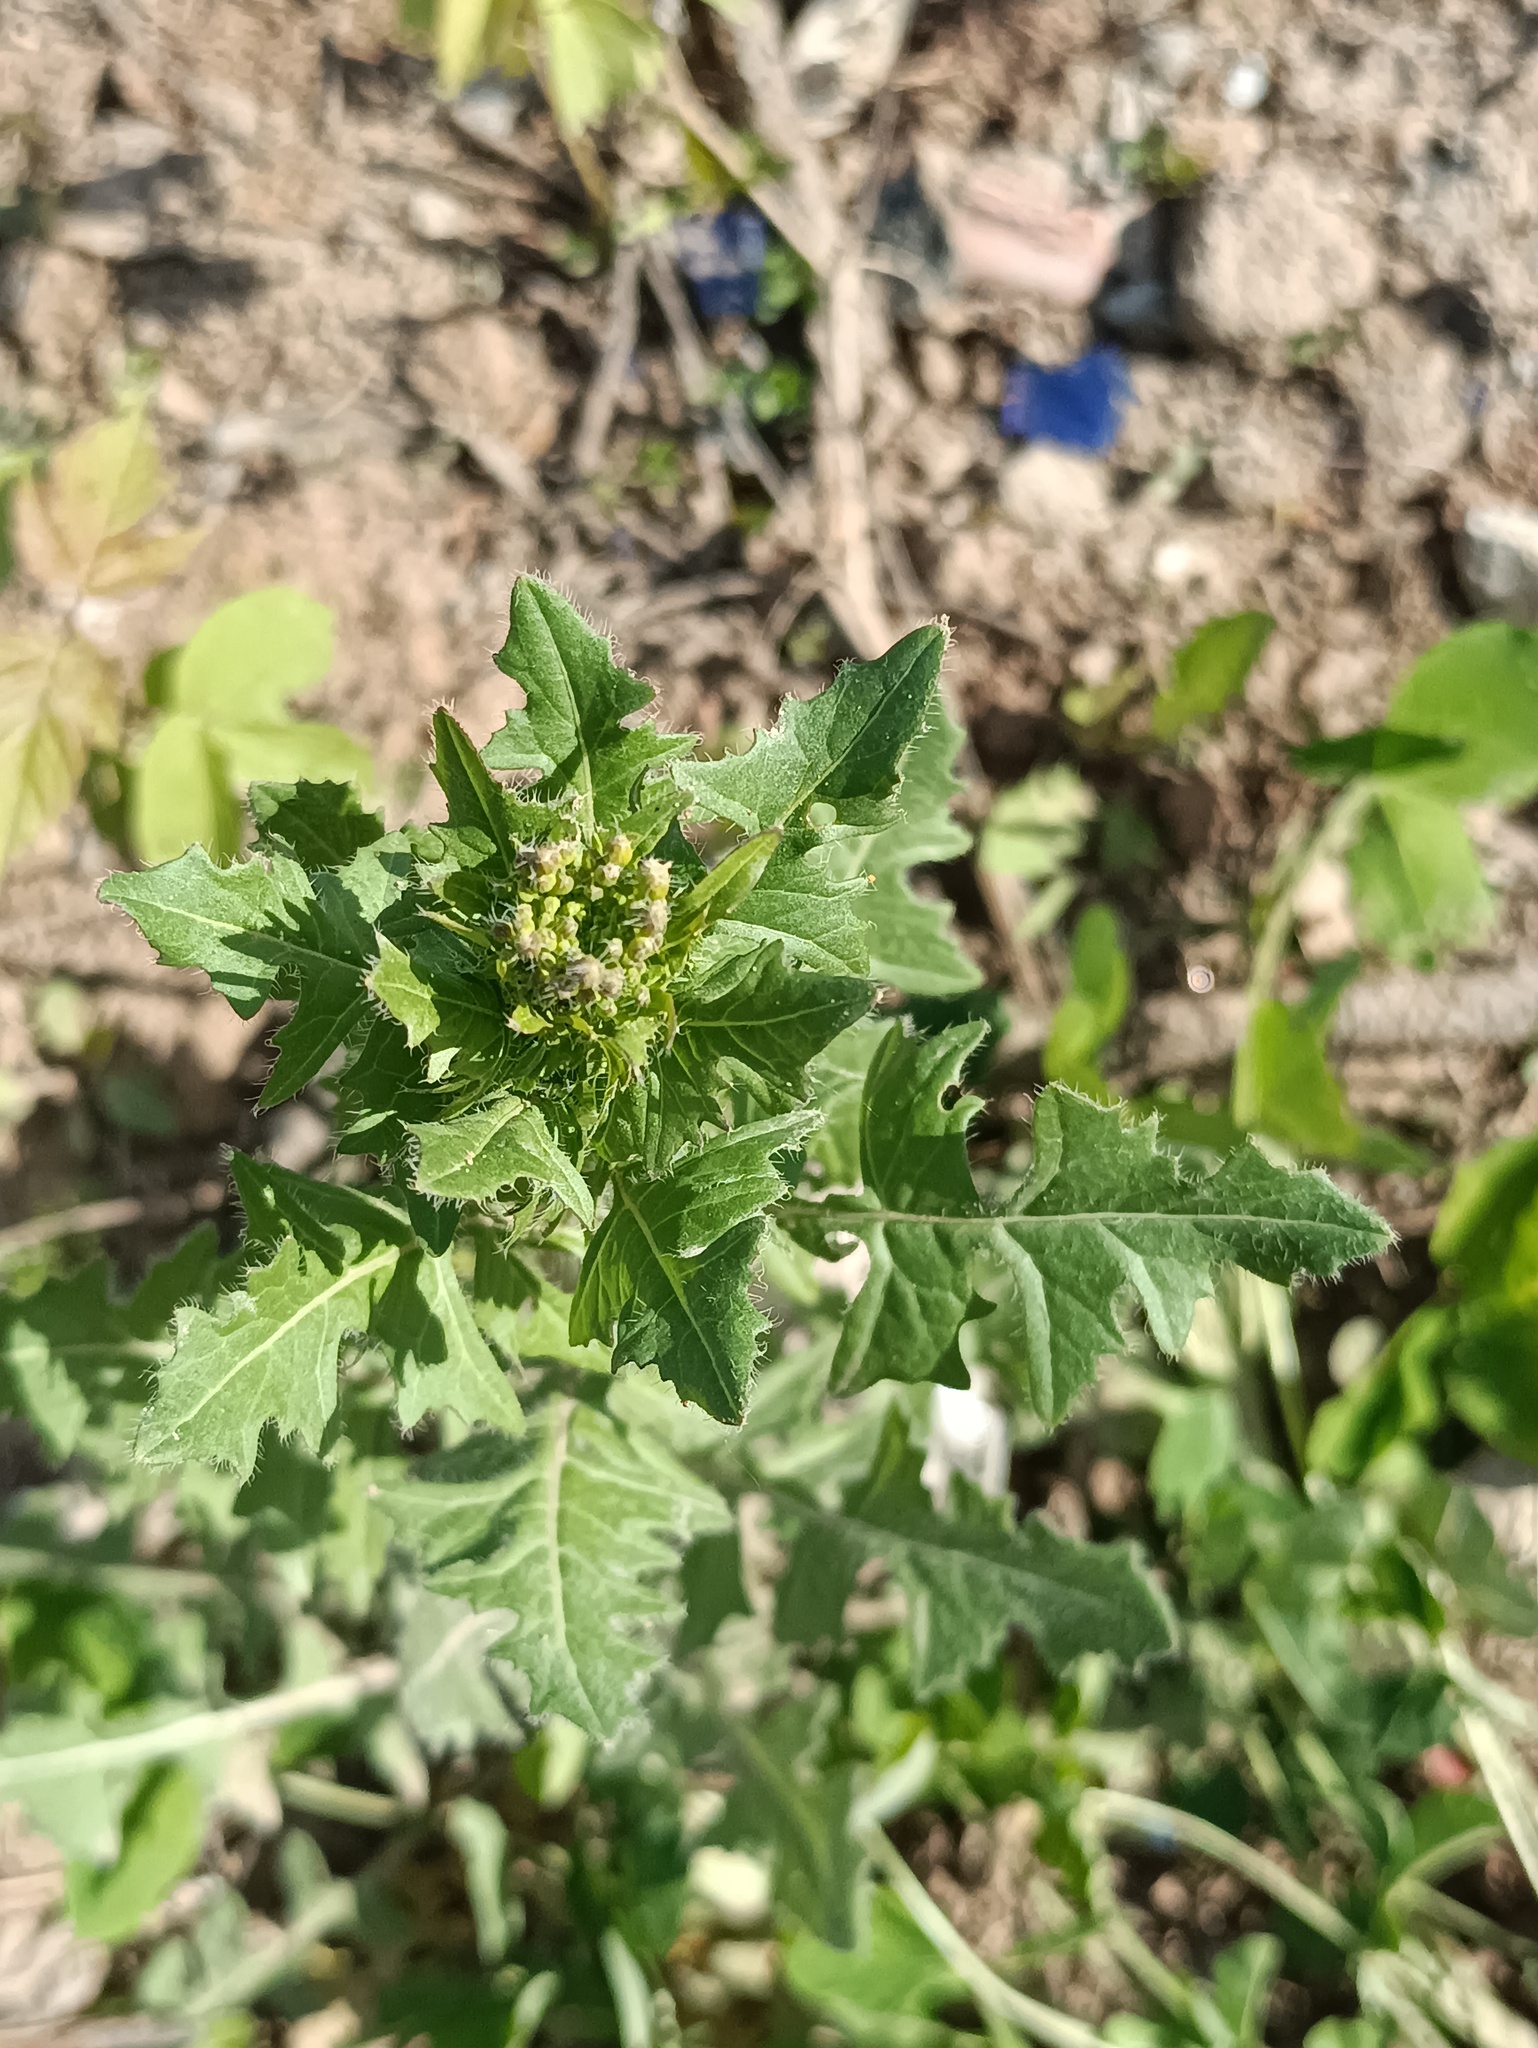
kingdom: Plantae
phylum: Tracheophyta
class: Magnoliopsida
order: Brassicales
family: Brassicaceae
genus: Sisymbrium
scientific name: Sisymbrium loeselii
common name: False london-rocket
